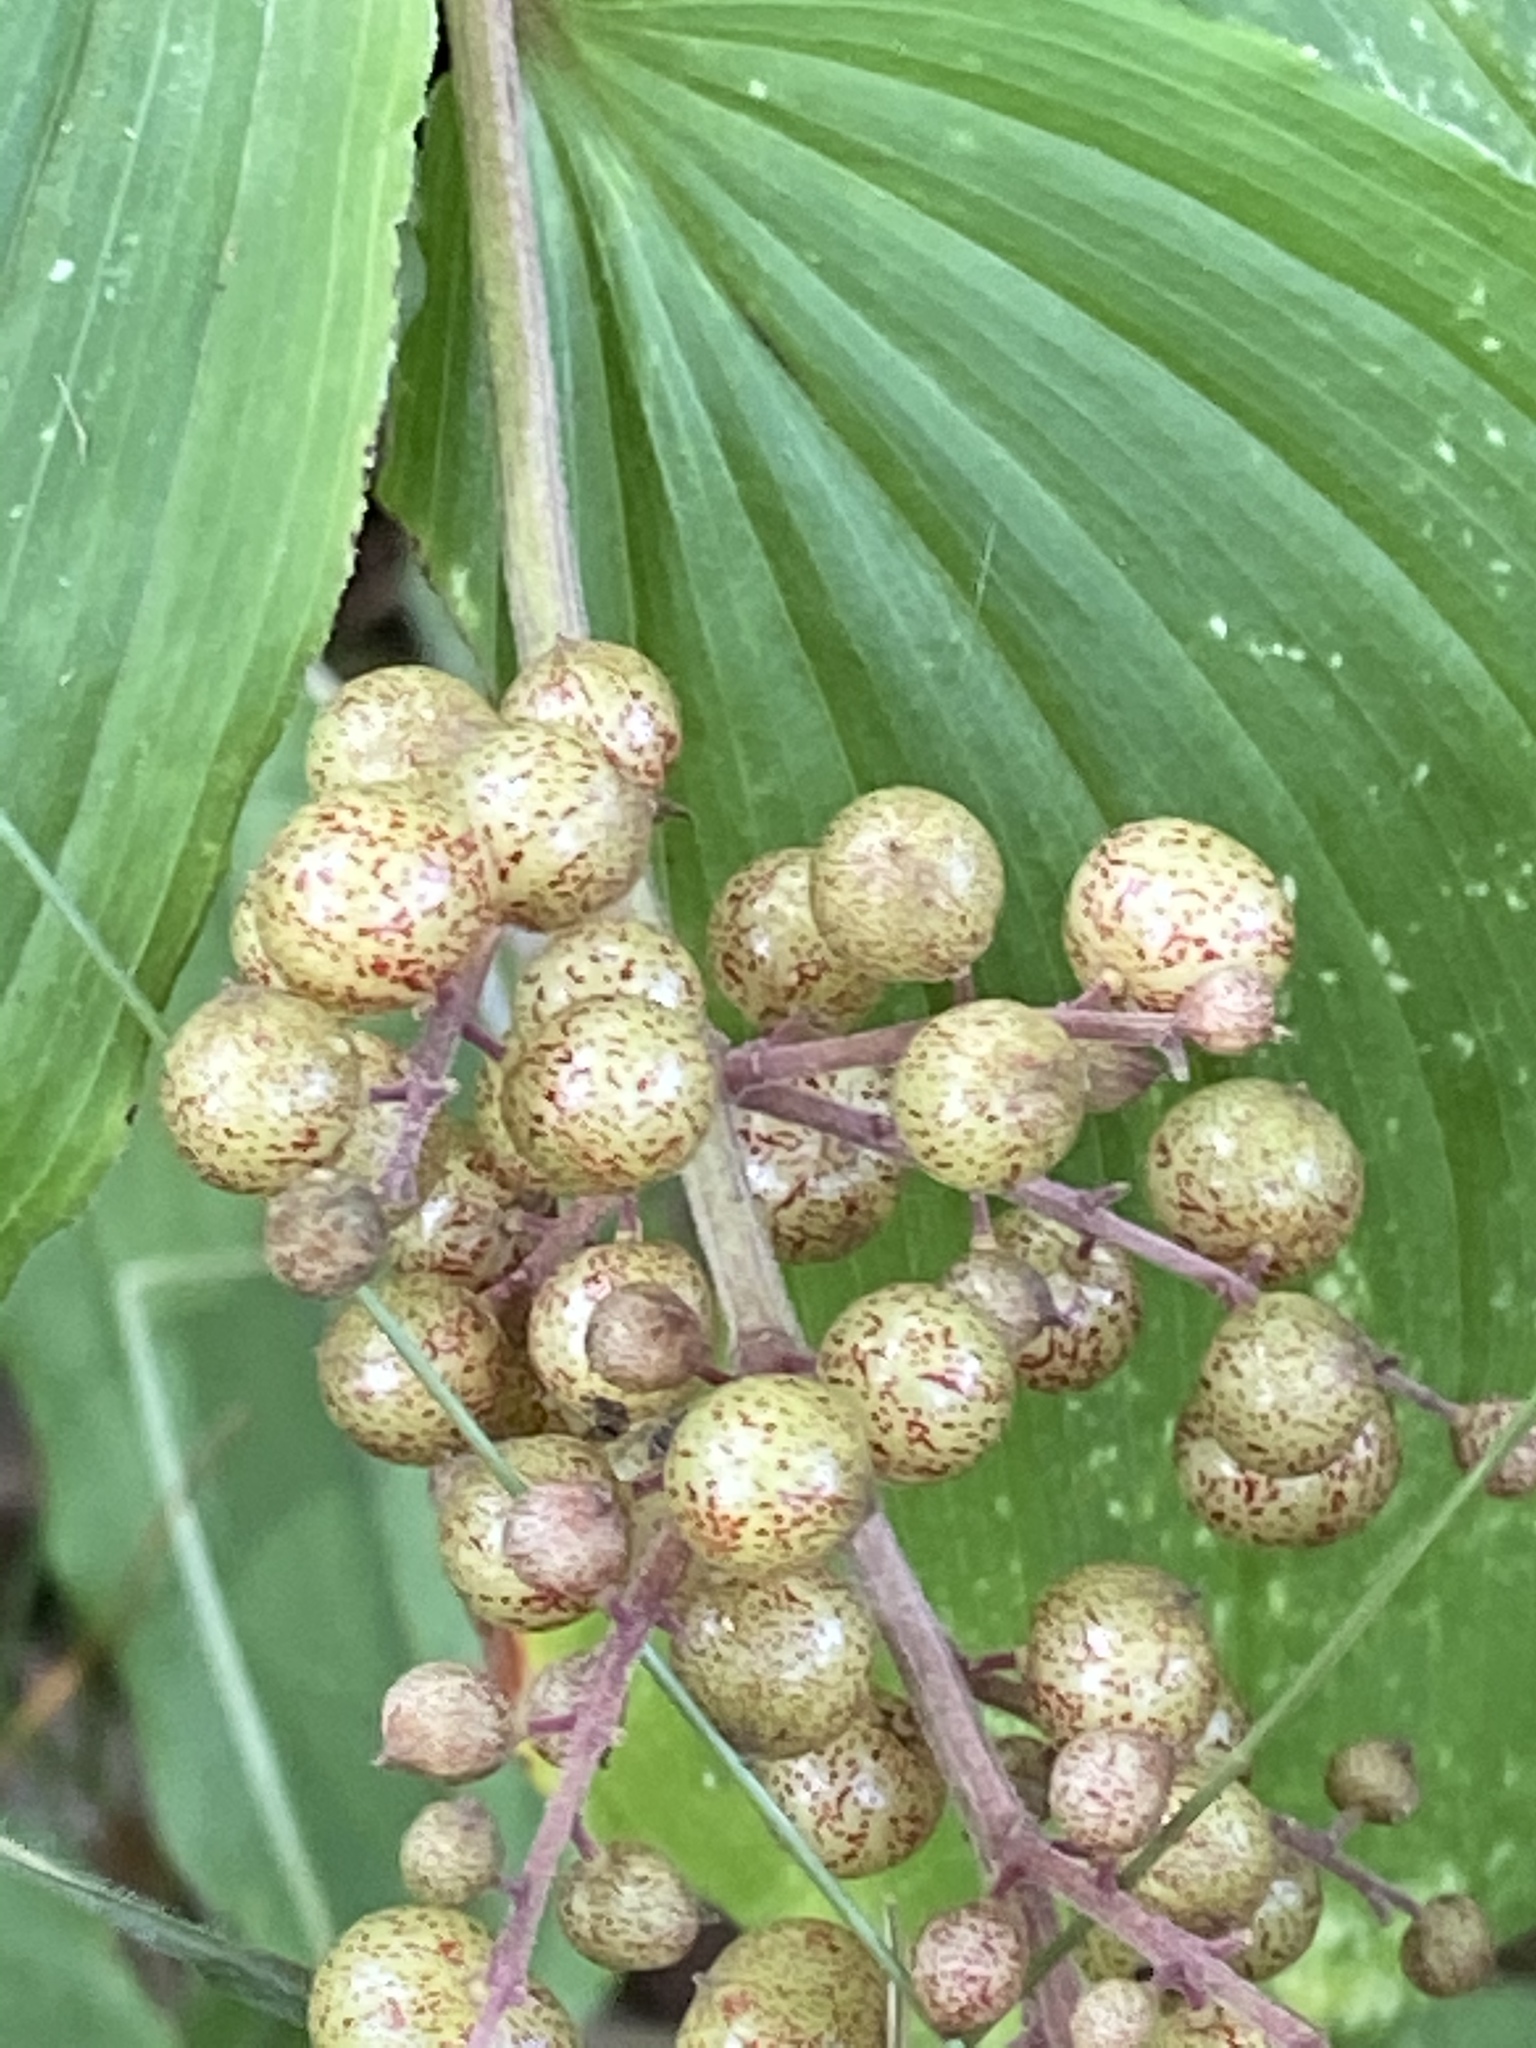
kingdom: Plantae
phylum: Tracheophyta
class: Liliopsida
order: Asparagales
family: Asparagaceae
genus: Maianthemum
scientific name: Maianthemum racemosum
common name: False spikenard
